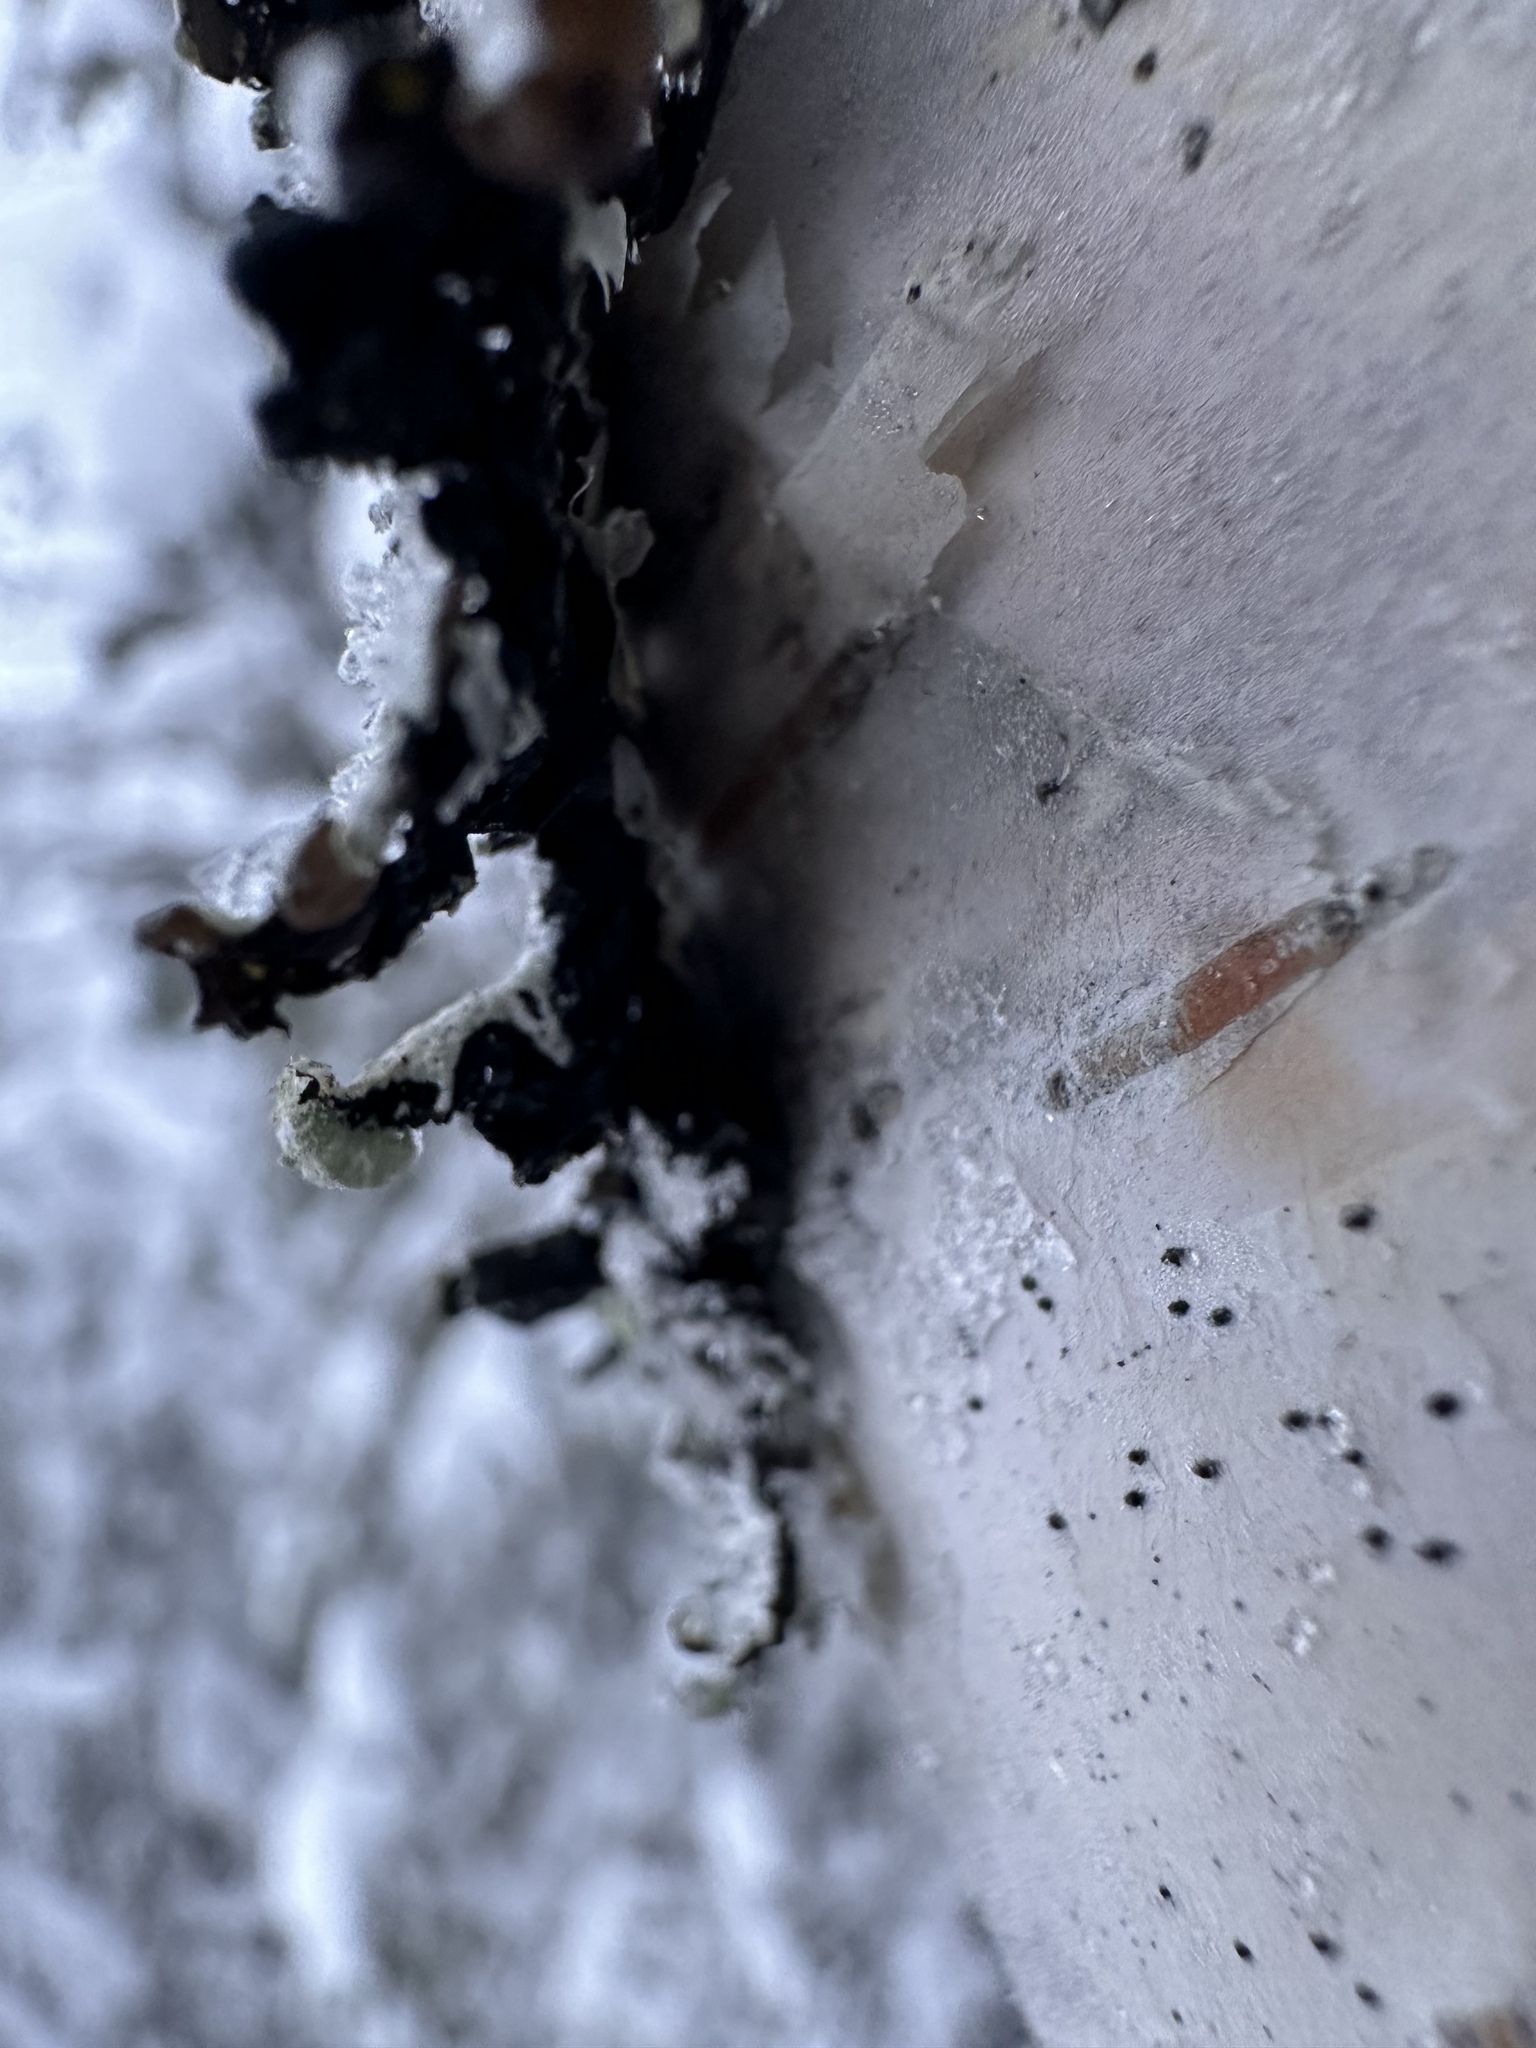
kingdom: Fungi
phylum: Ascomycota
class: Lecanoromycetes
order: Lecanorales
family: Parmeliaceae
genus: Hypogymnia
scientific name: Hypogymnia physodes
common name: Dark crottle
